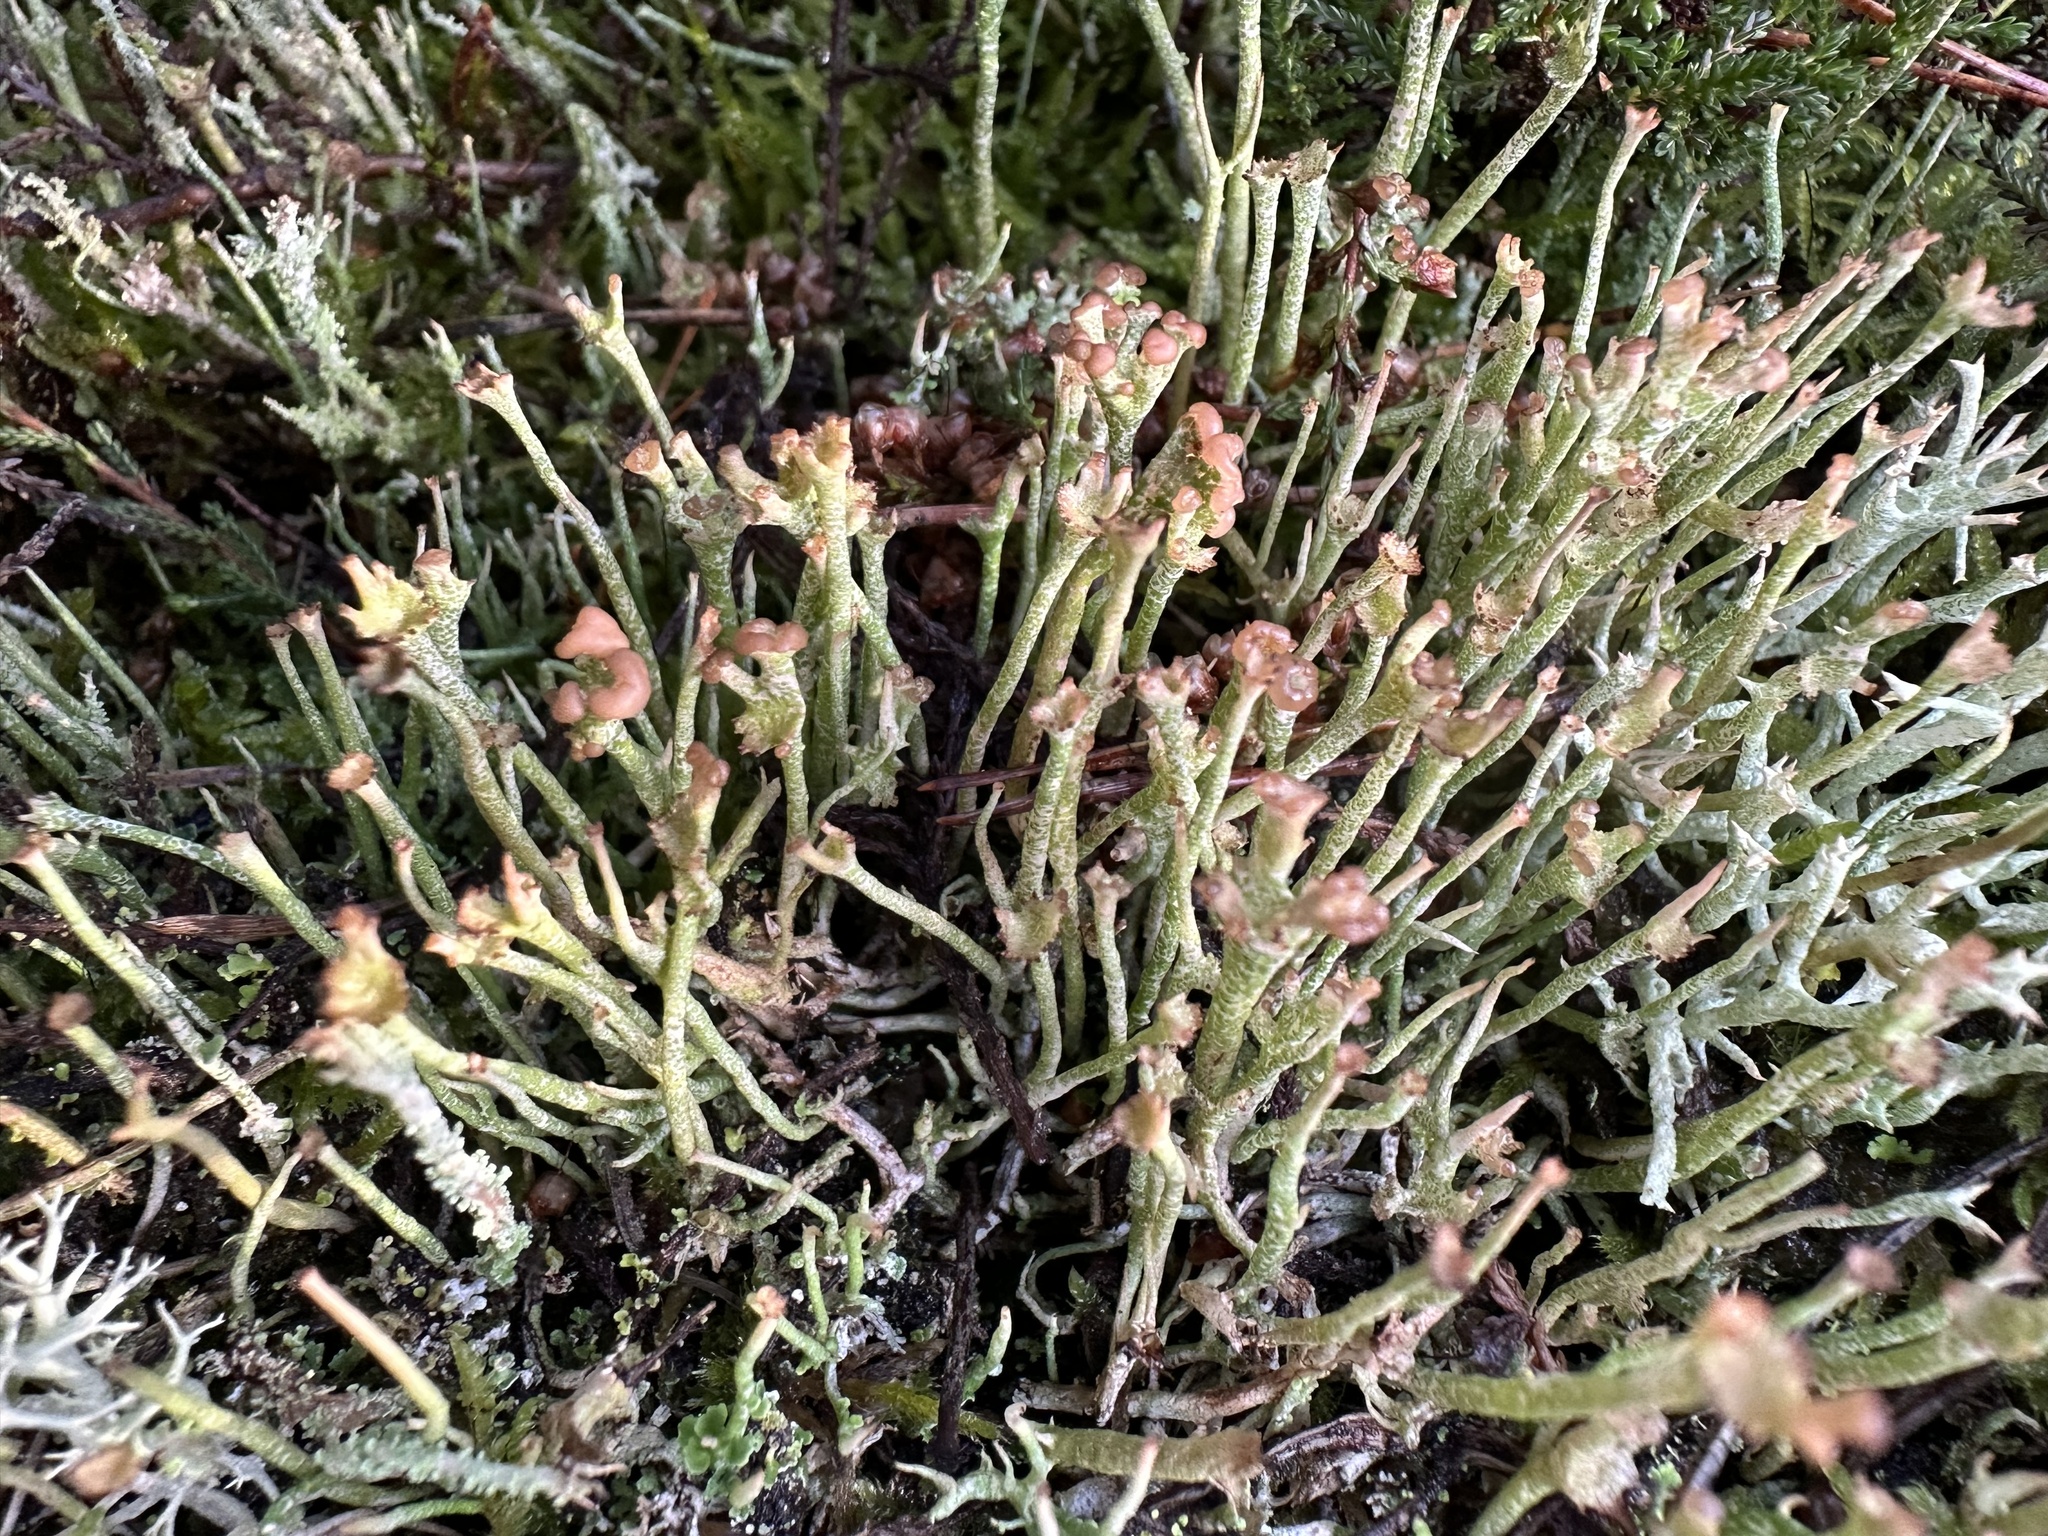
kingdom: Fungi
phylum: Ascomycota
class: Lecanoromycetes
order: Lecanorales
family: Cladoniaceae
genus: Cladonia
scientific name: Cladonia gracilis
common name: Smooth clad lichen
